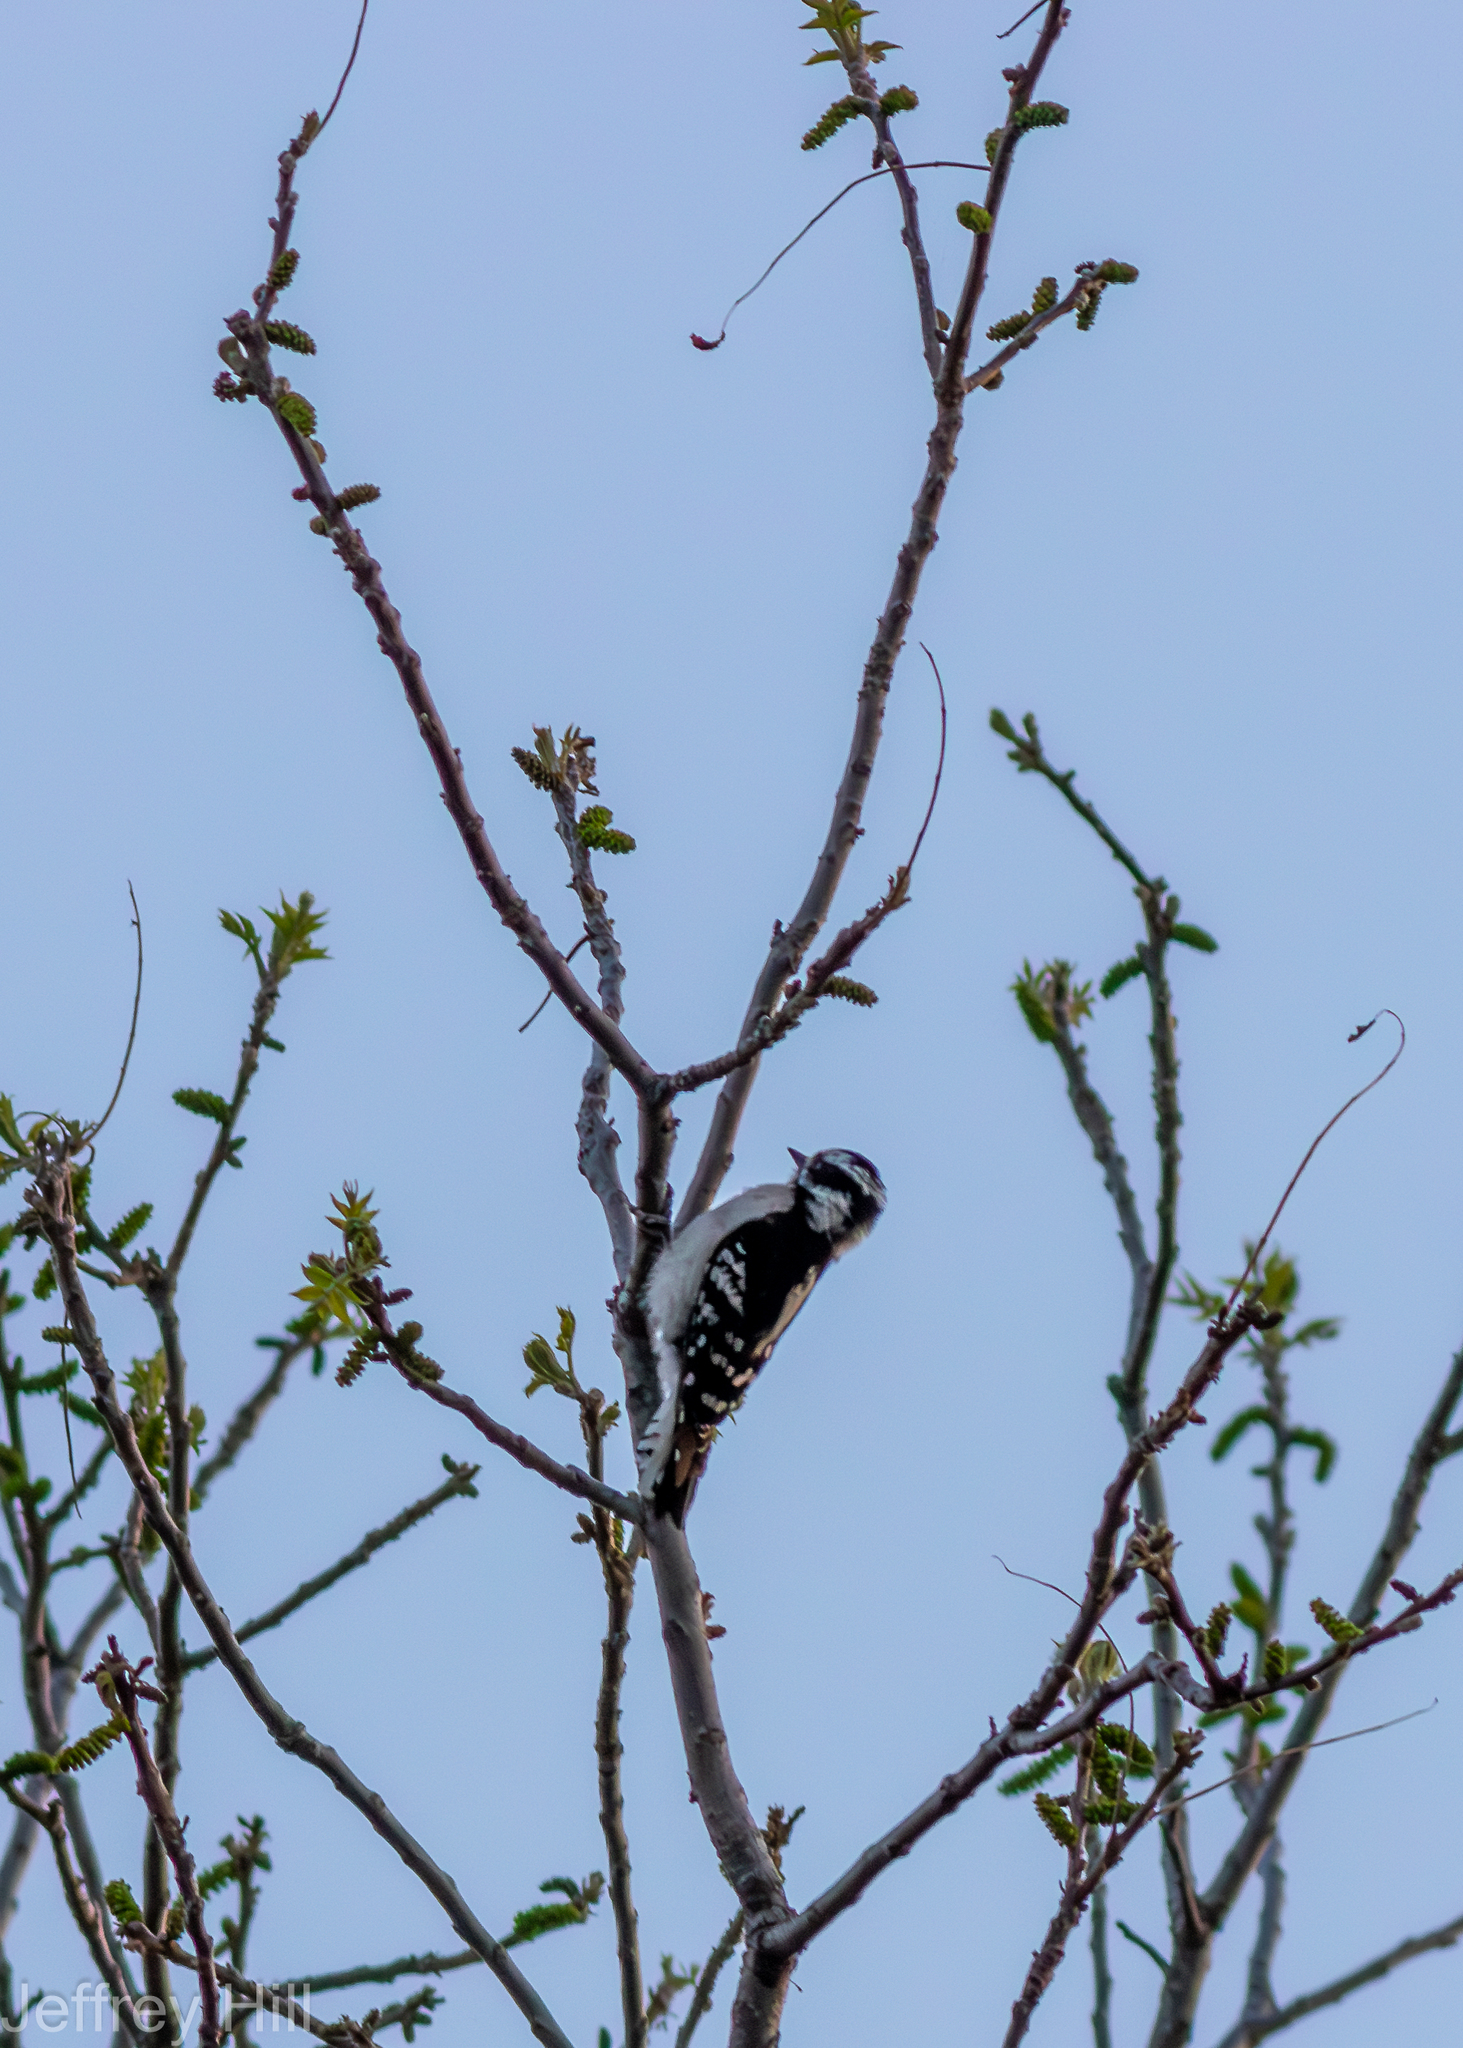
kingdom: Animalia
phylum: Chordata
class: Aves
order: Piciformes
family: Picidae
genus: Dryobates
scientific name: Dryobates pubescens
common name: Downy woodpecker
